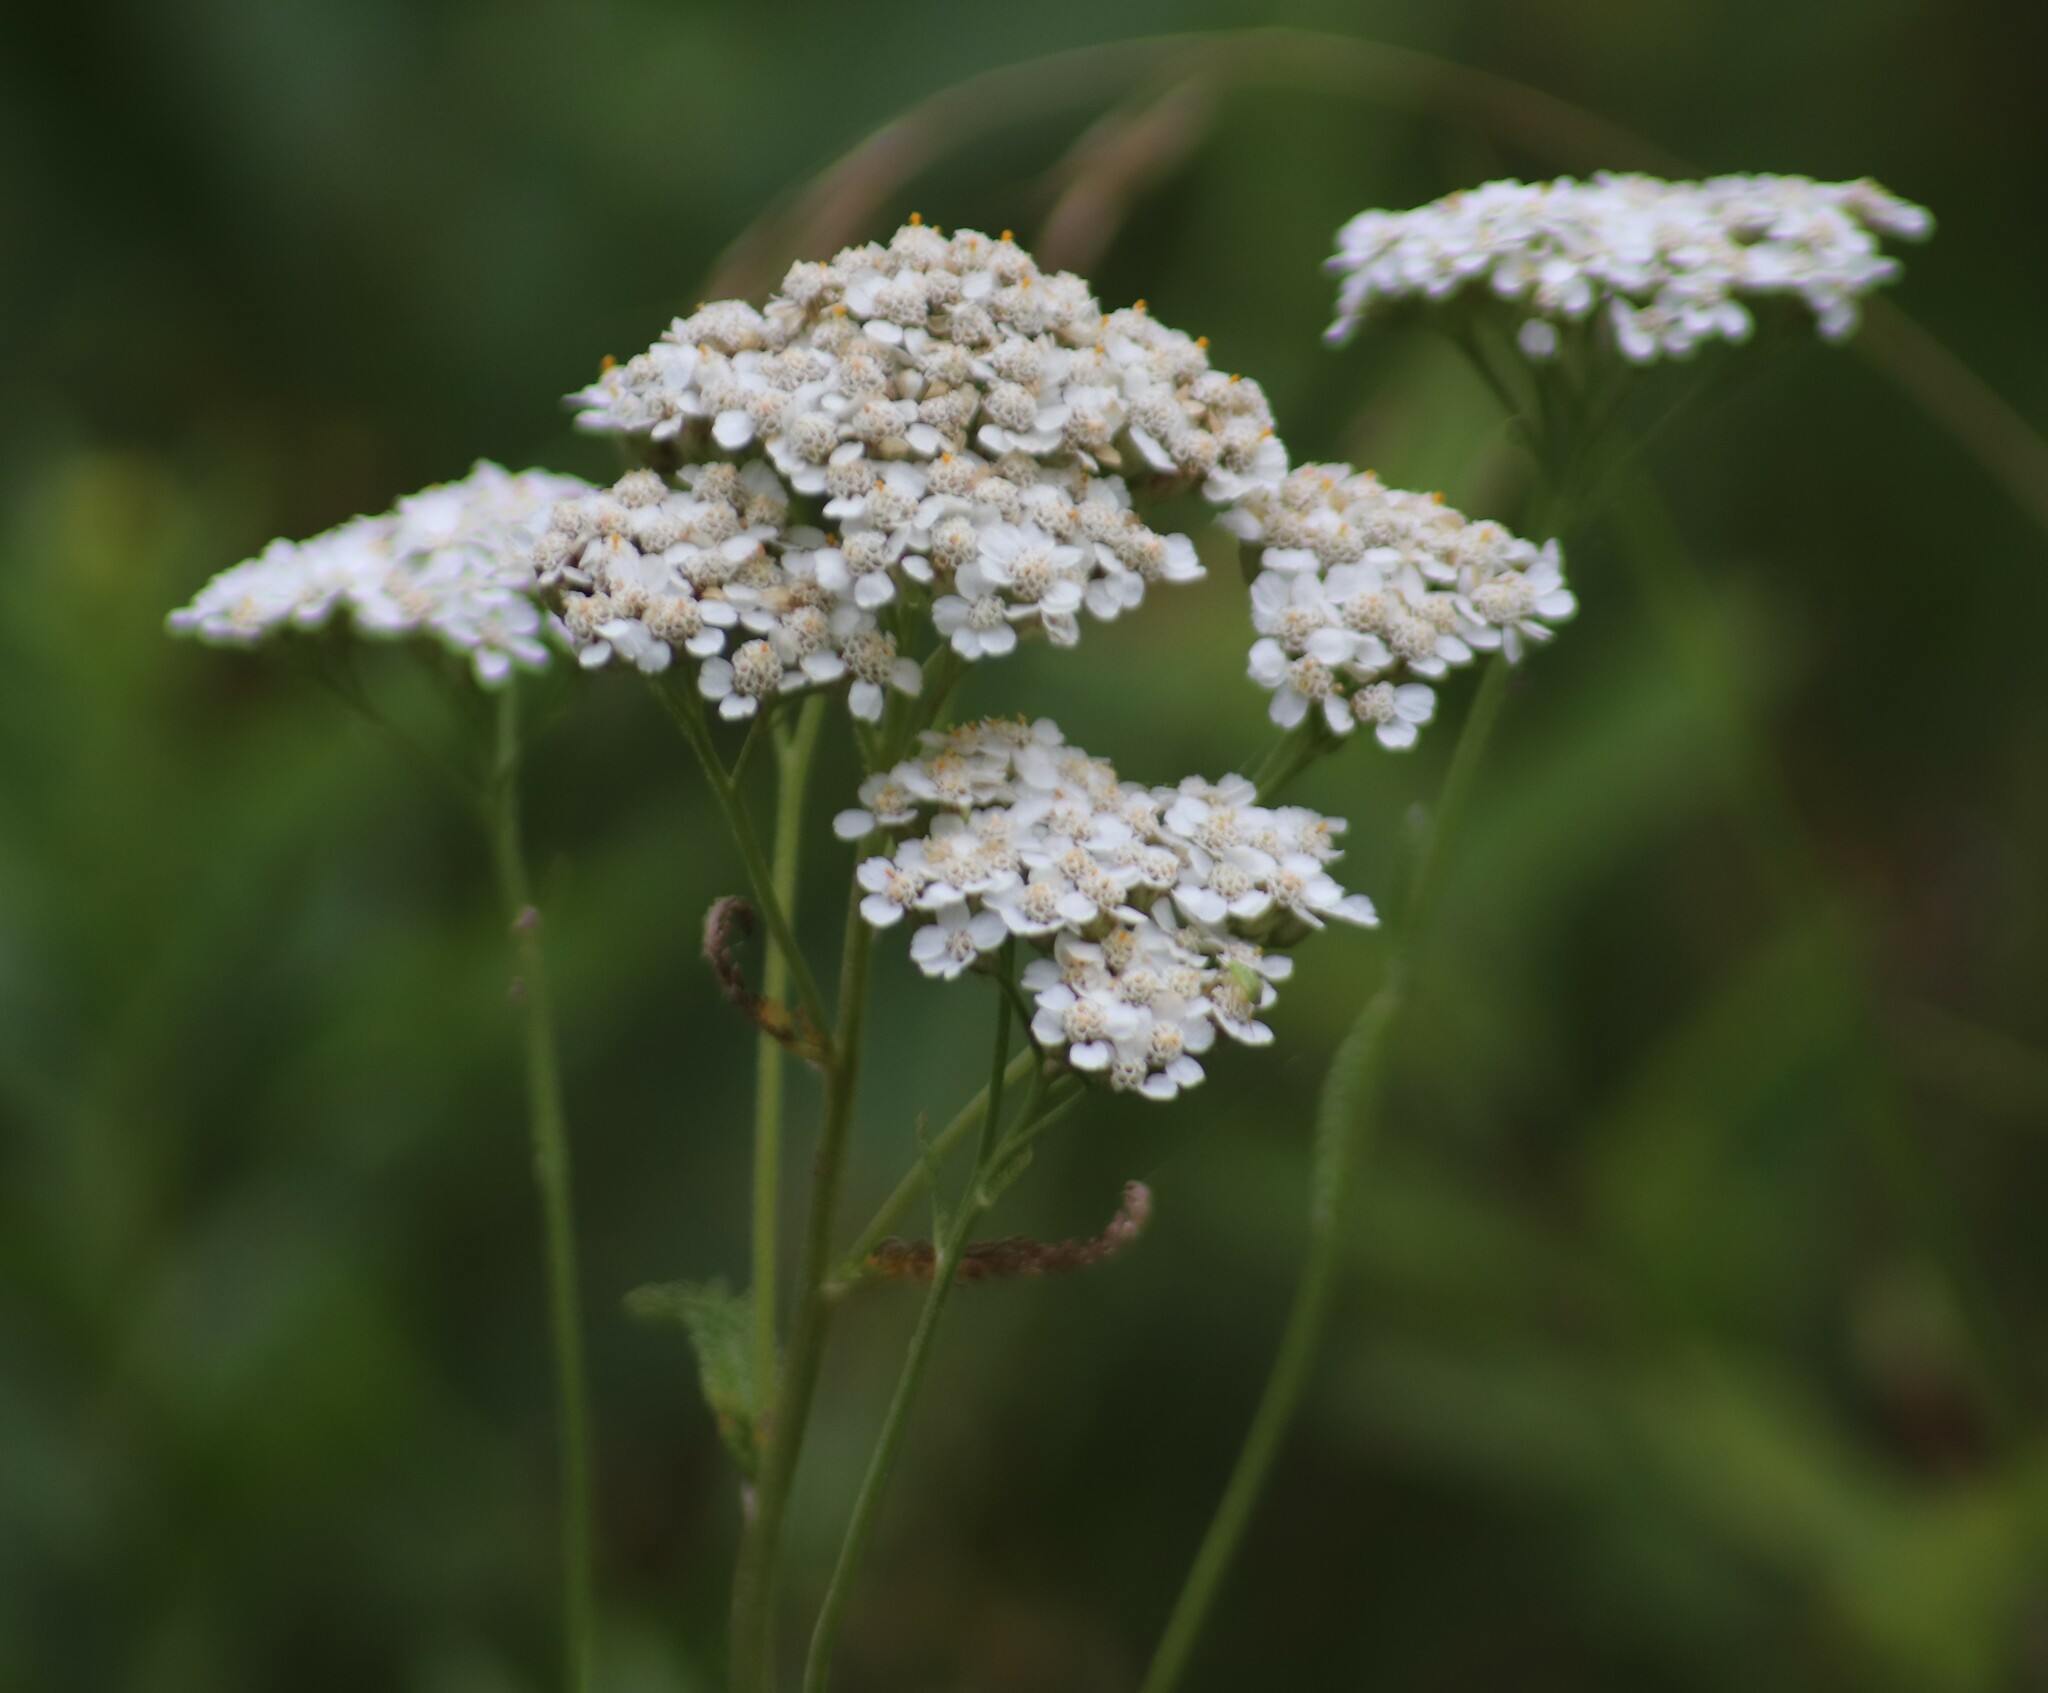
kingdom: Plantae
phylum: Tracheophyta
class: Magnoliopsida
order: Asterales
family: Asteraceae
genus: Achillea
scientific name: Achillea millefolium
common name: Yarrow
